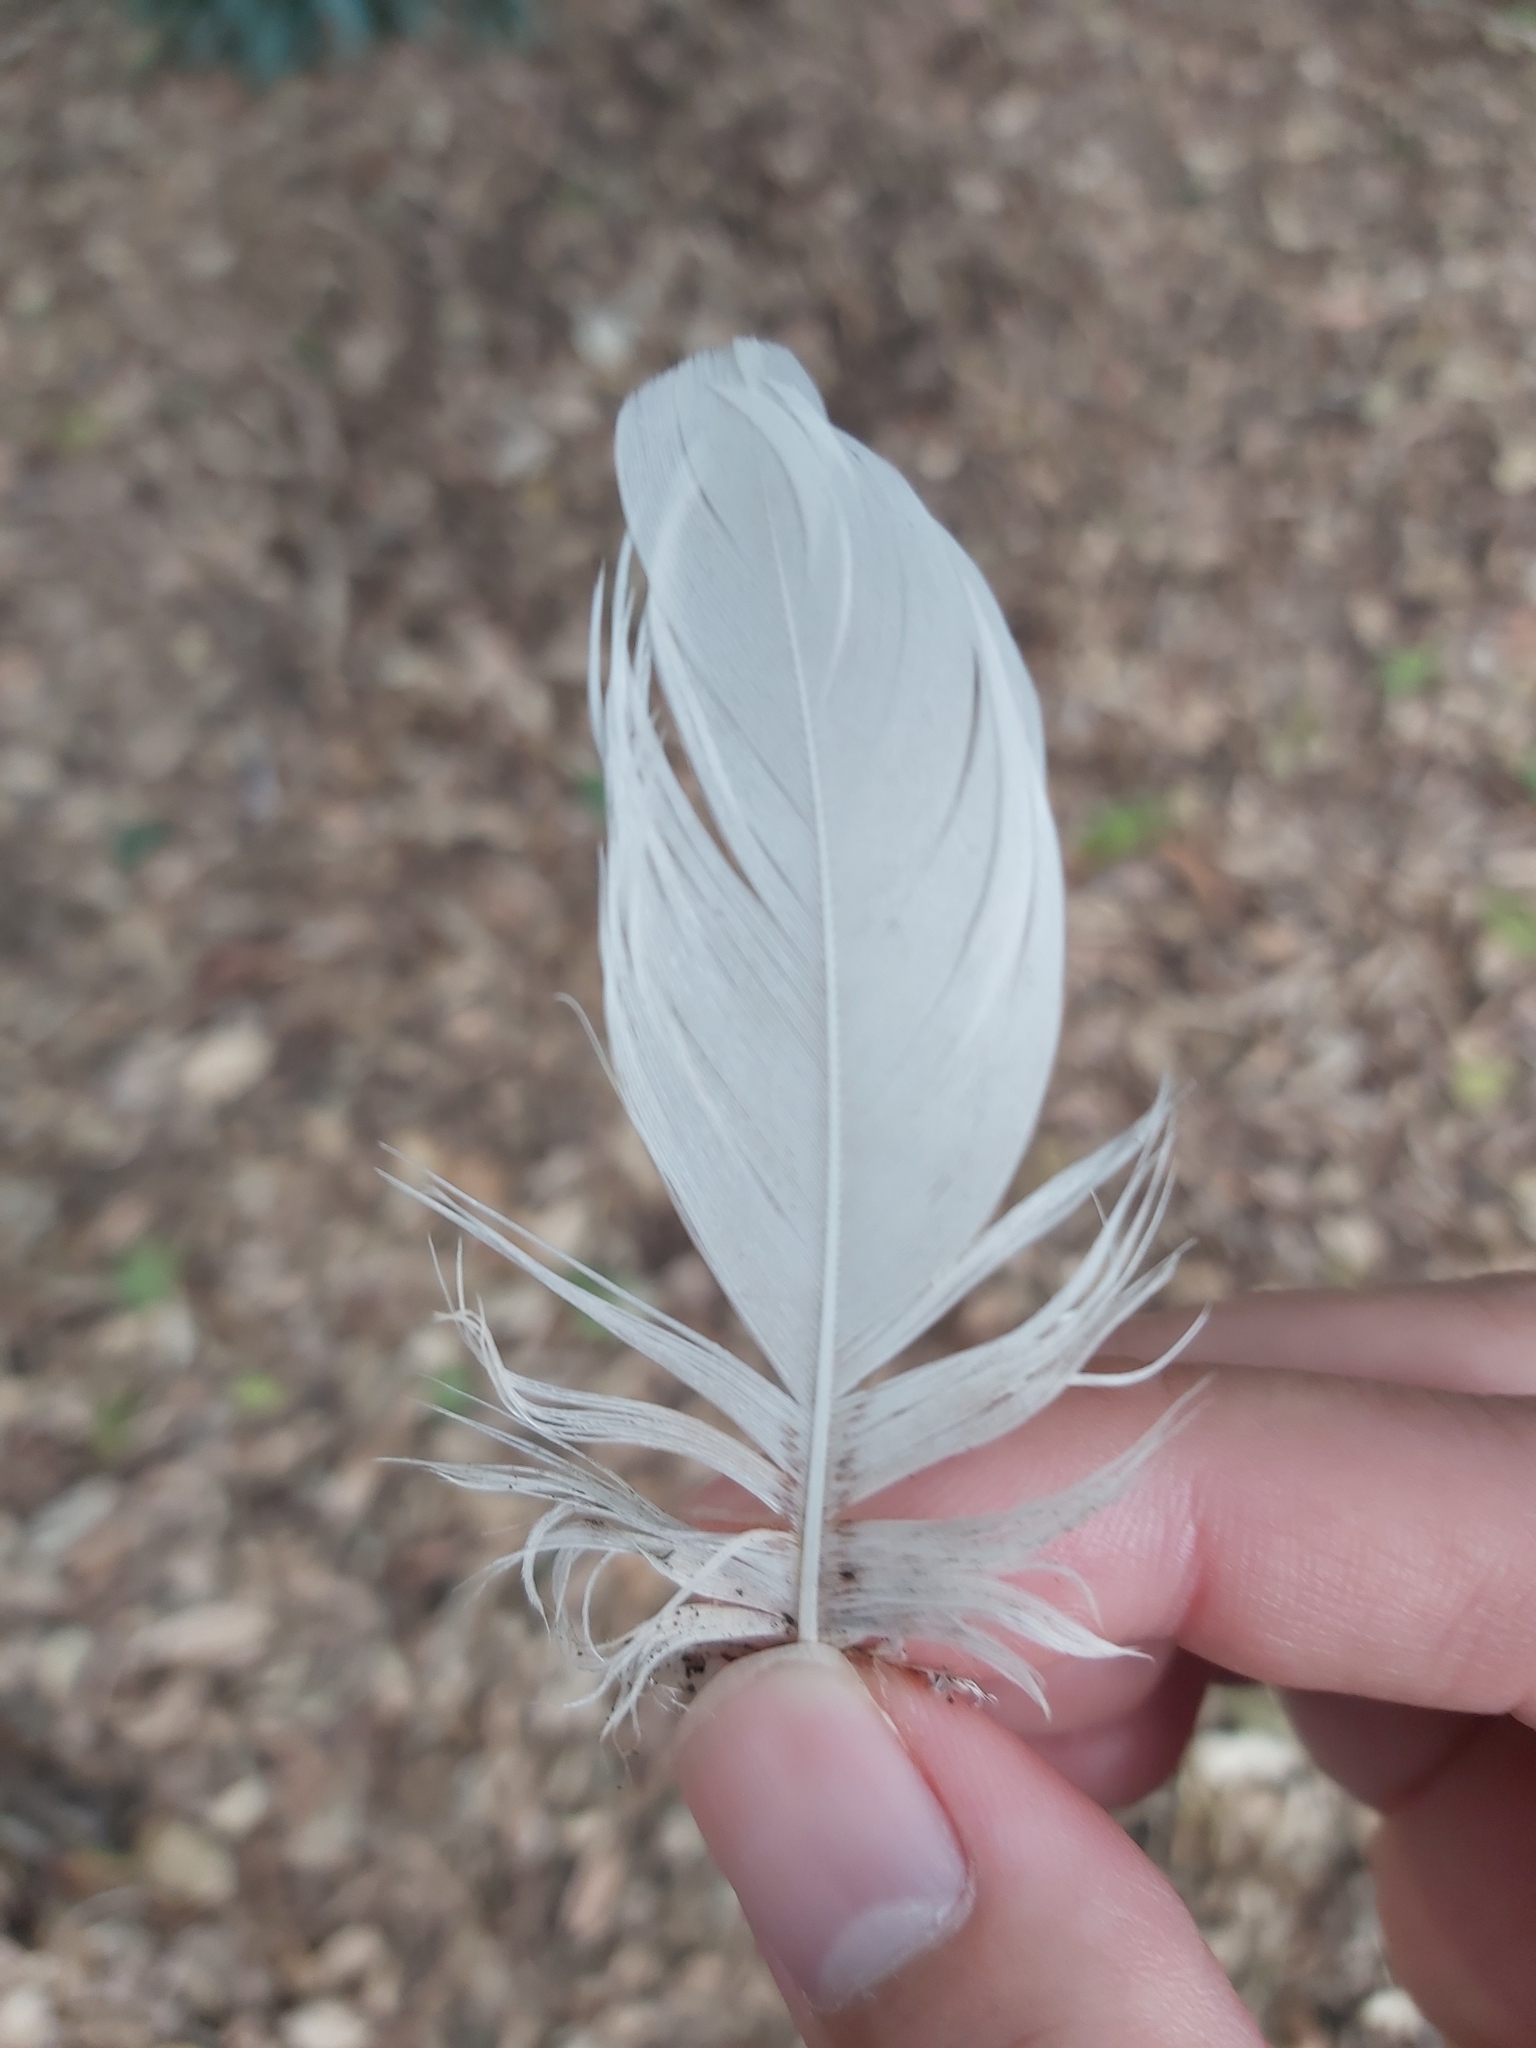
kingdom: Animalia
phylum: Chordata
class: Aves
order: Pelecaniformes
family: Threskiornithidae
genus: Threskiornis
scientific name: Threskiornis molucca
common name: Australian white ibis
